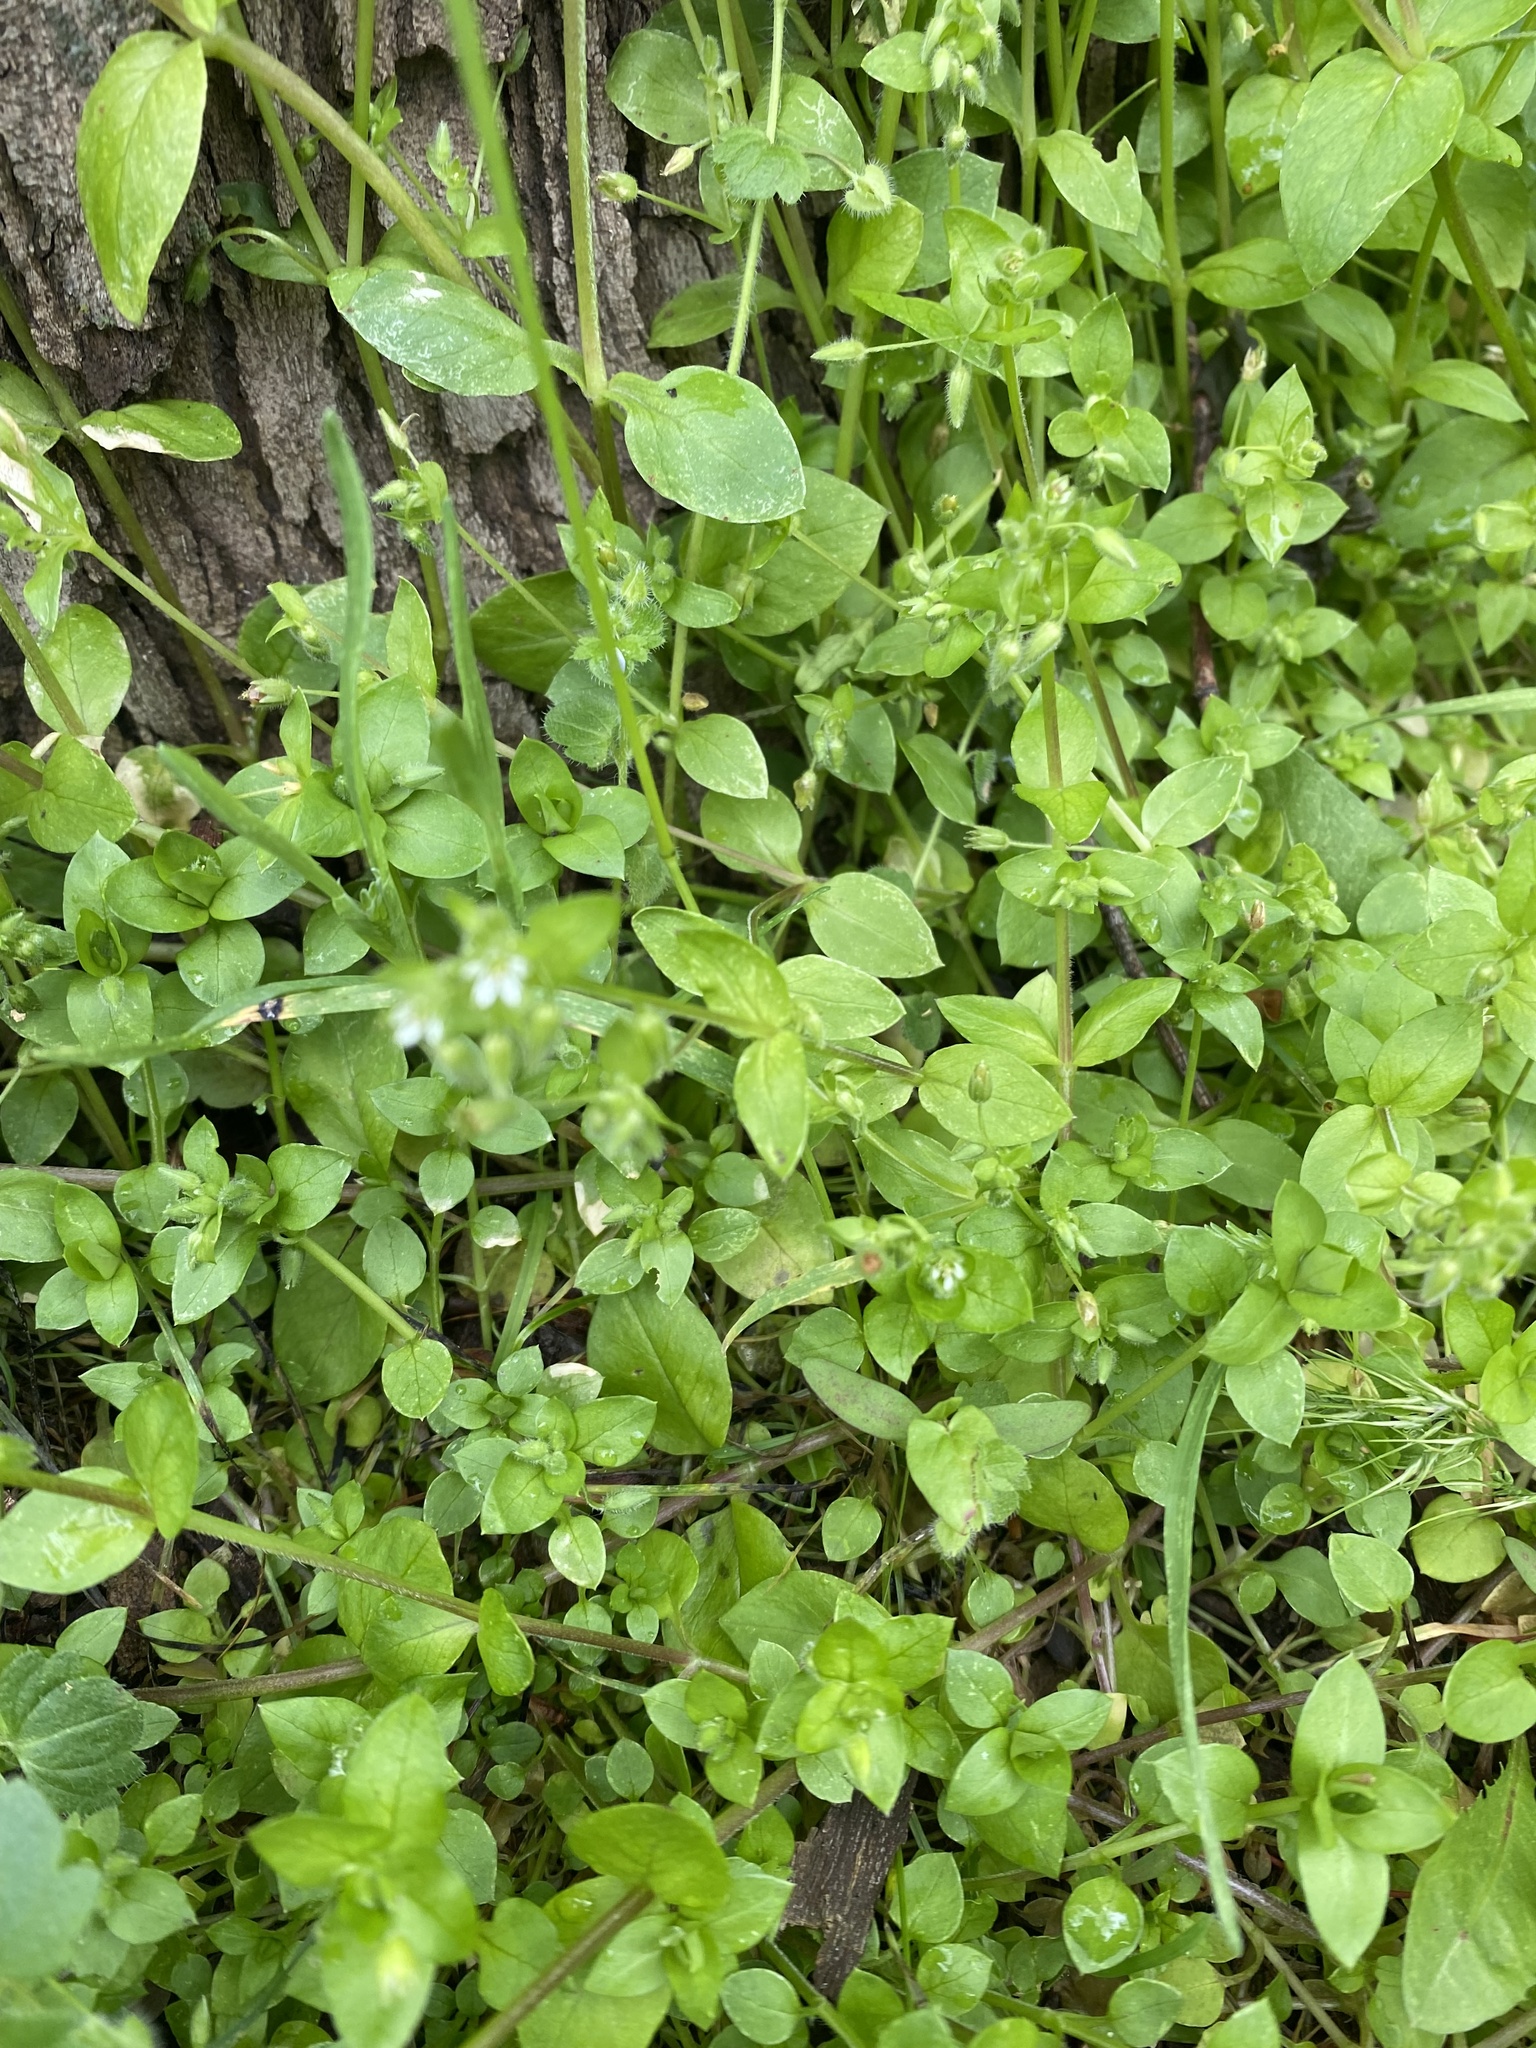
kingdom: Plantae
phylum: Tracheophyta
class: Magnoliopsida
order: Caryophyllales
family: Caryophyllaceae
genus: Stellaria
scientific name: Stellaria media
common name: Common chickweed
